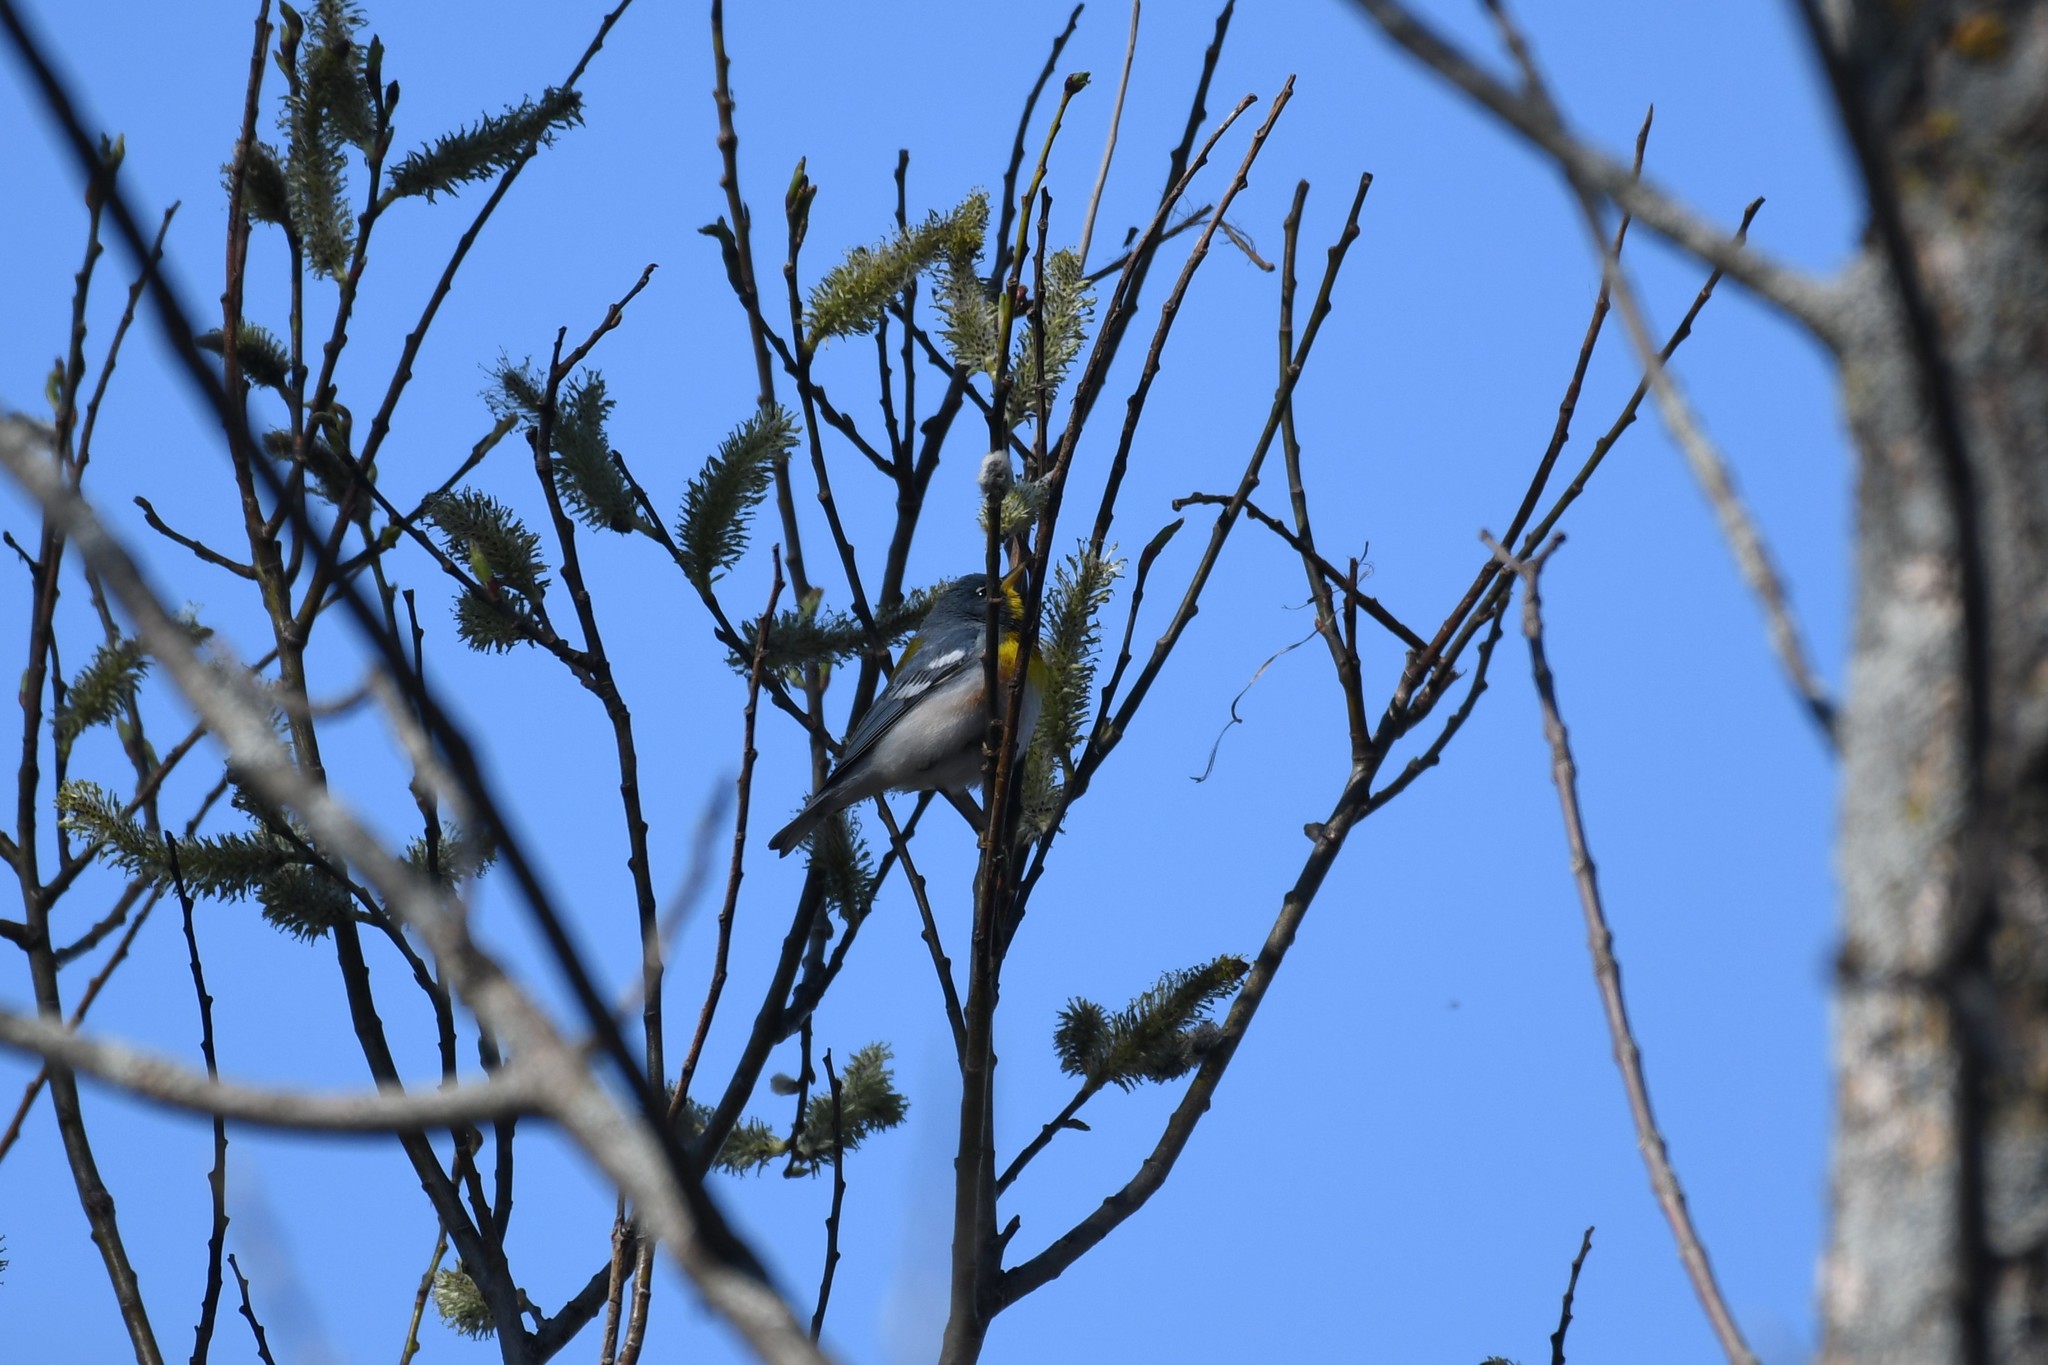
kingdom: Animalia
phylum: Chordata
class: Aves
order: Passeriformes
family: Parulidae
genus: Setophaga
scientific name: Setophaga americana
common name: Northern parula
